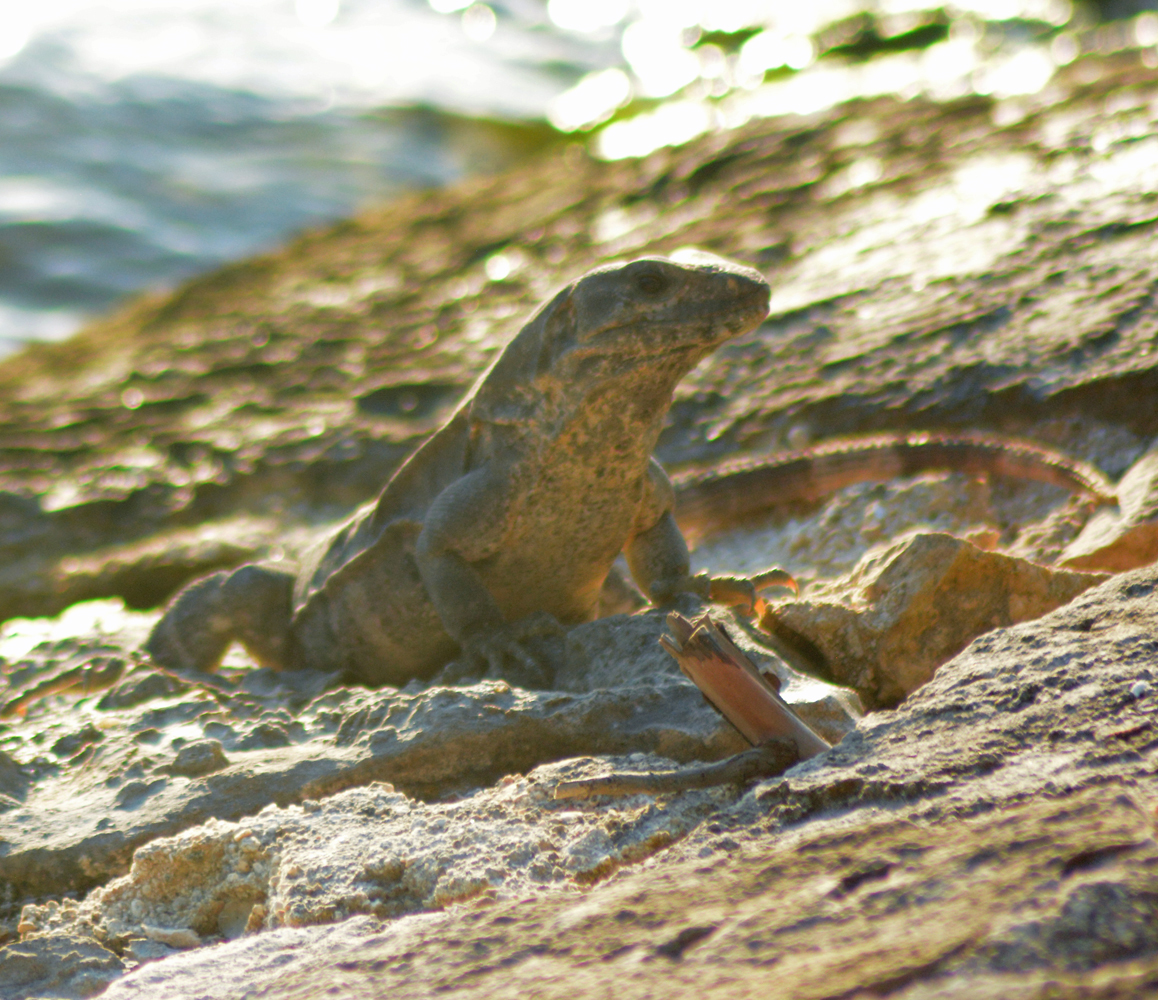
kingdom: Animalia
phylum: Chordata
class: Squamata
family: Iguanidae
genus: Ctenosaura
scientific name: Ctenosaura similis
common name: Black spiny-tailed iguana
